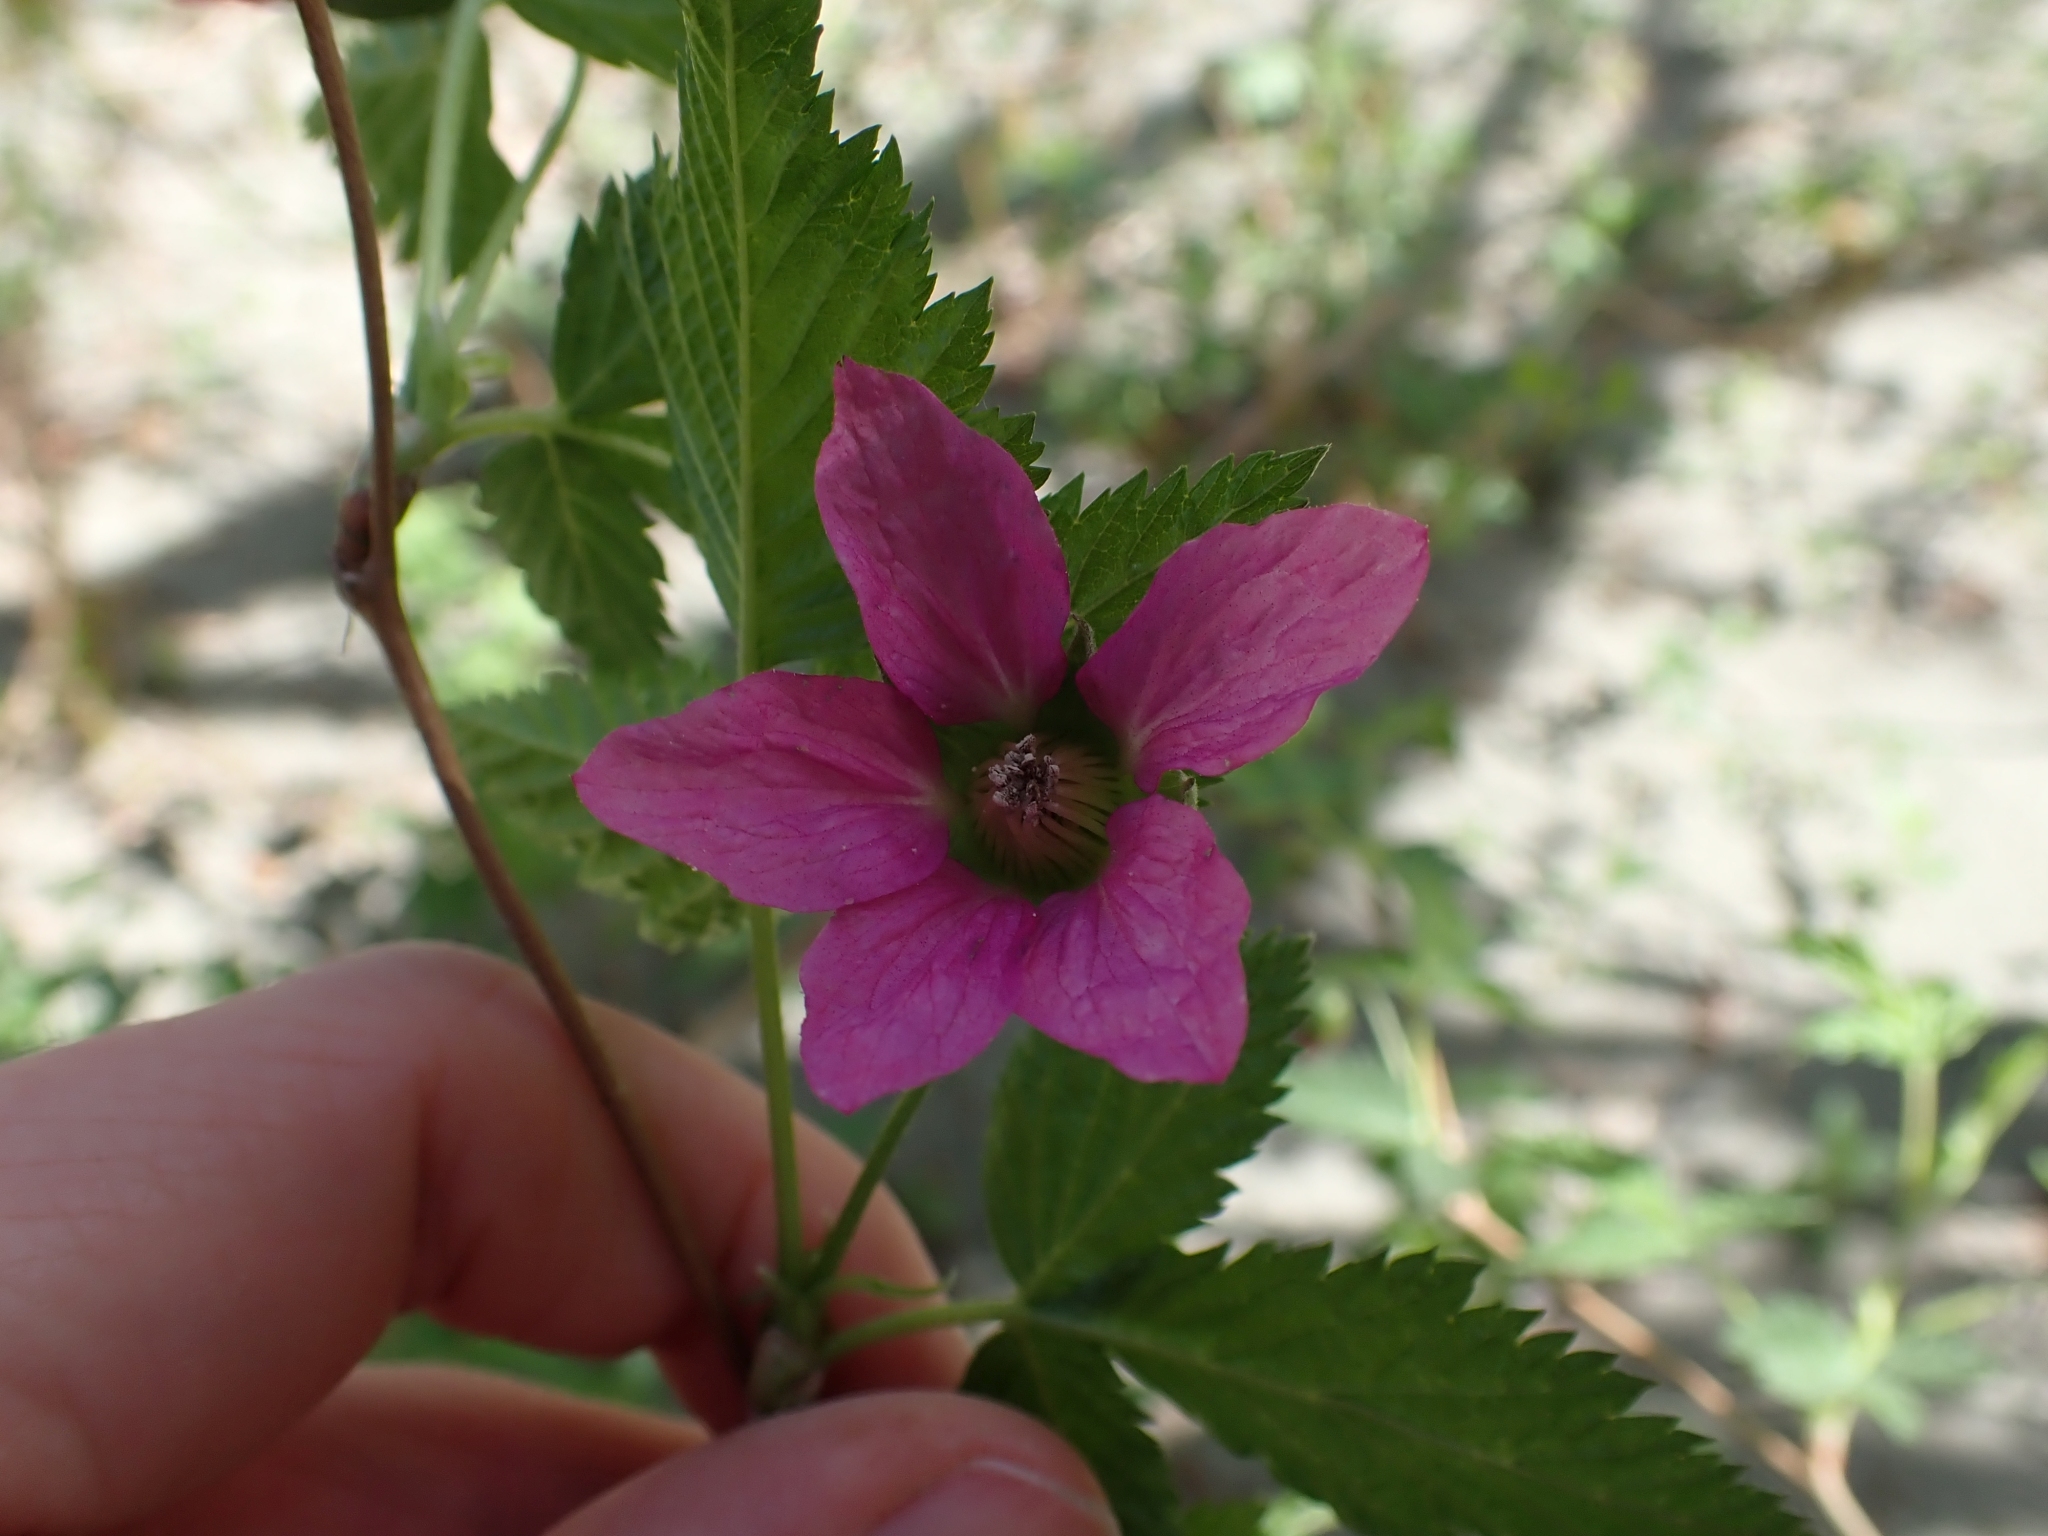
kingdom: Plantae
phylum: Tracheophyta
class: Magnoliopsida
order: Rosales
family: Rosaceae
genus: Rubus
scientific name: Rubus spectabilis
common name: Salmonberry
